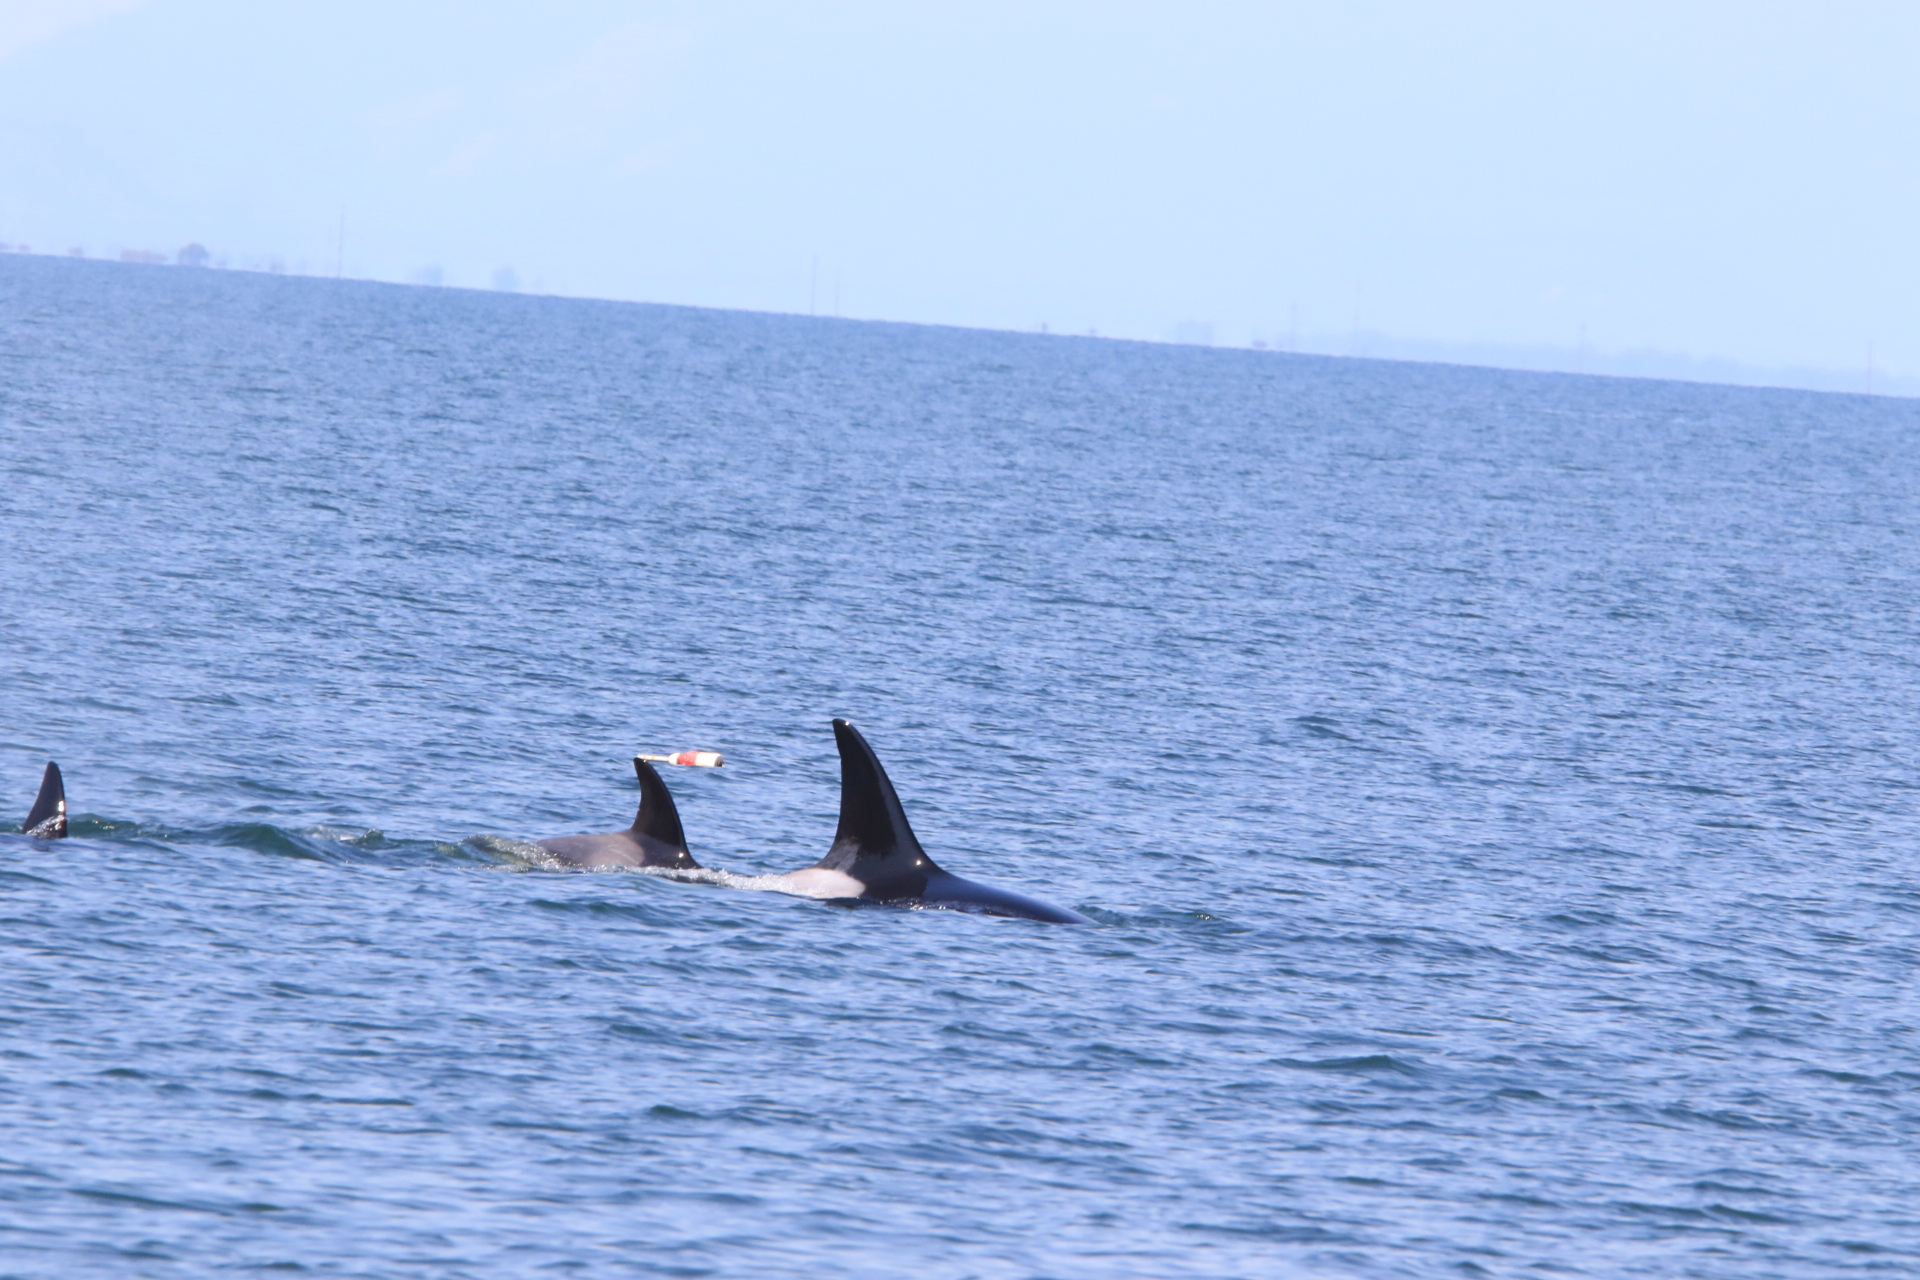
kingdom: Animalia
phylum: Chordata
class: Mammalia
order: Cetacea
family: Delphinidae
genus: Orcinus
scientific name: Orcinus orca
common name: Killer whale
